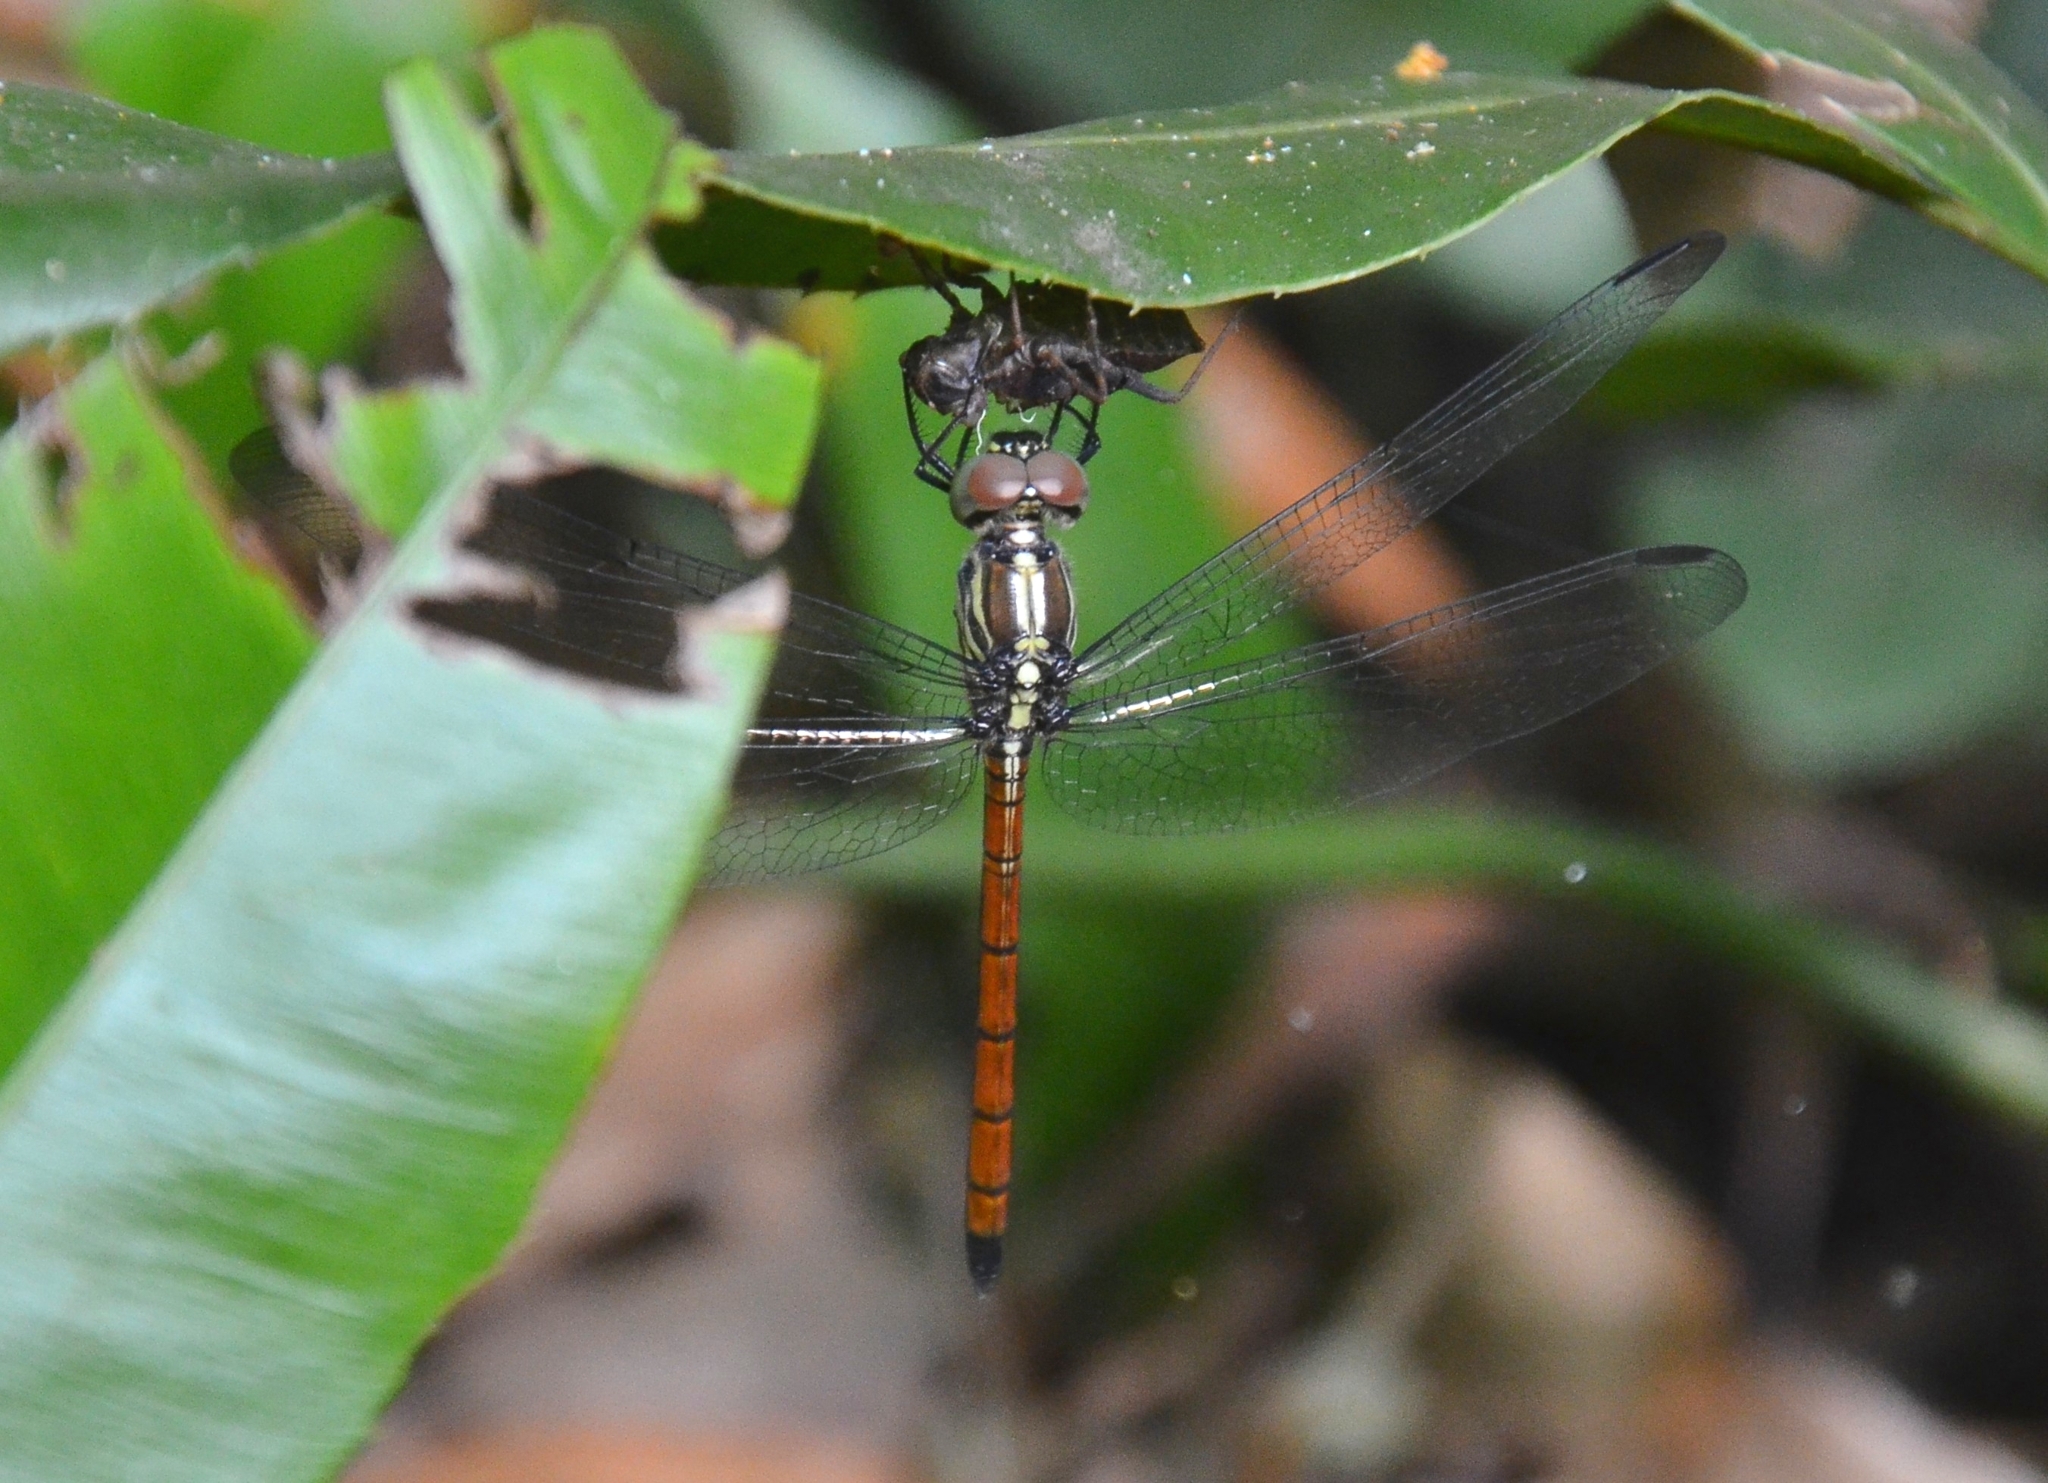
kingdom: Animalia
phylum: Arthropoda
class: Insecta
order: Odonata
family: Libellulidae
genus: Lathrecista
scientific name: Lathrecista asiatica
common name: Scarlet grenadier
